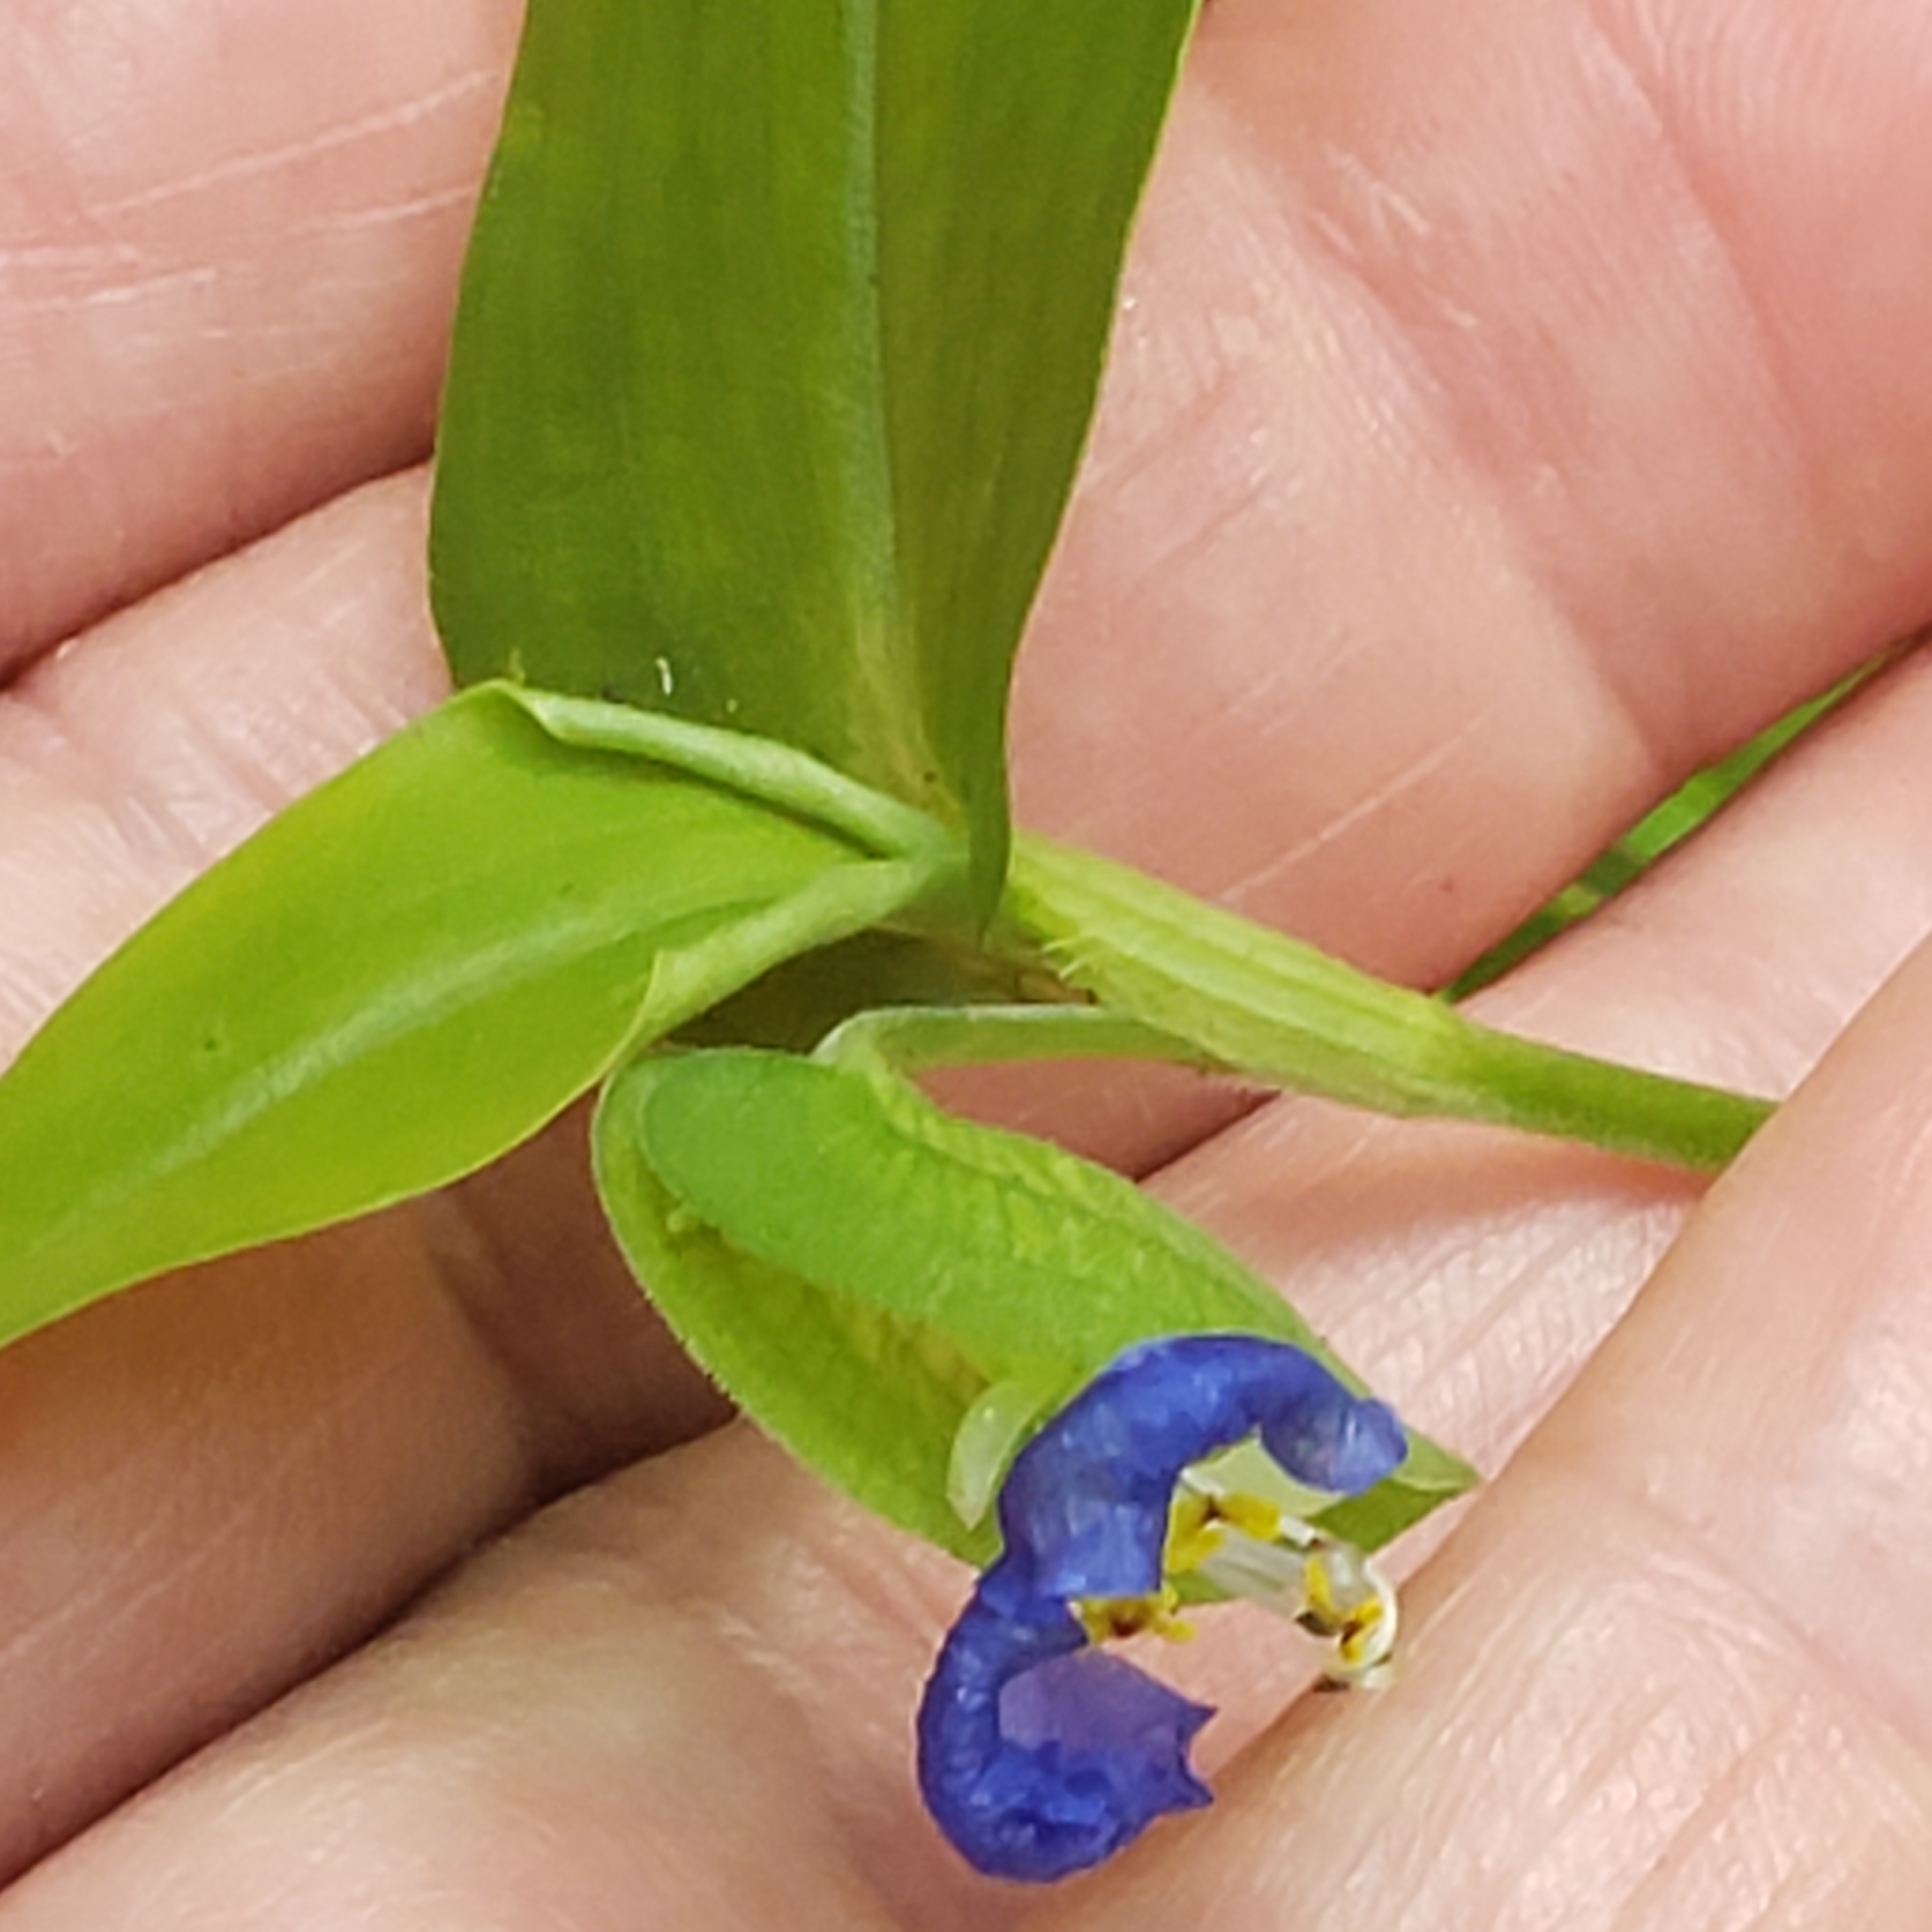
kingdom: Plantae
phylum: Tracheophyta
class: Liliopsida
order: Commelinales
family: Commelinaceae
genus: Commelina
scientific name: Commelina communis
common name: Asiatic dayflower
